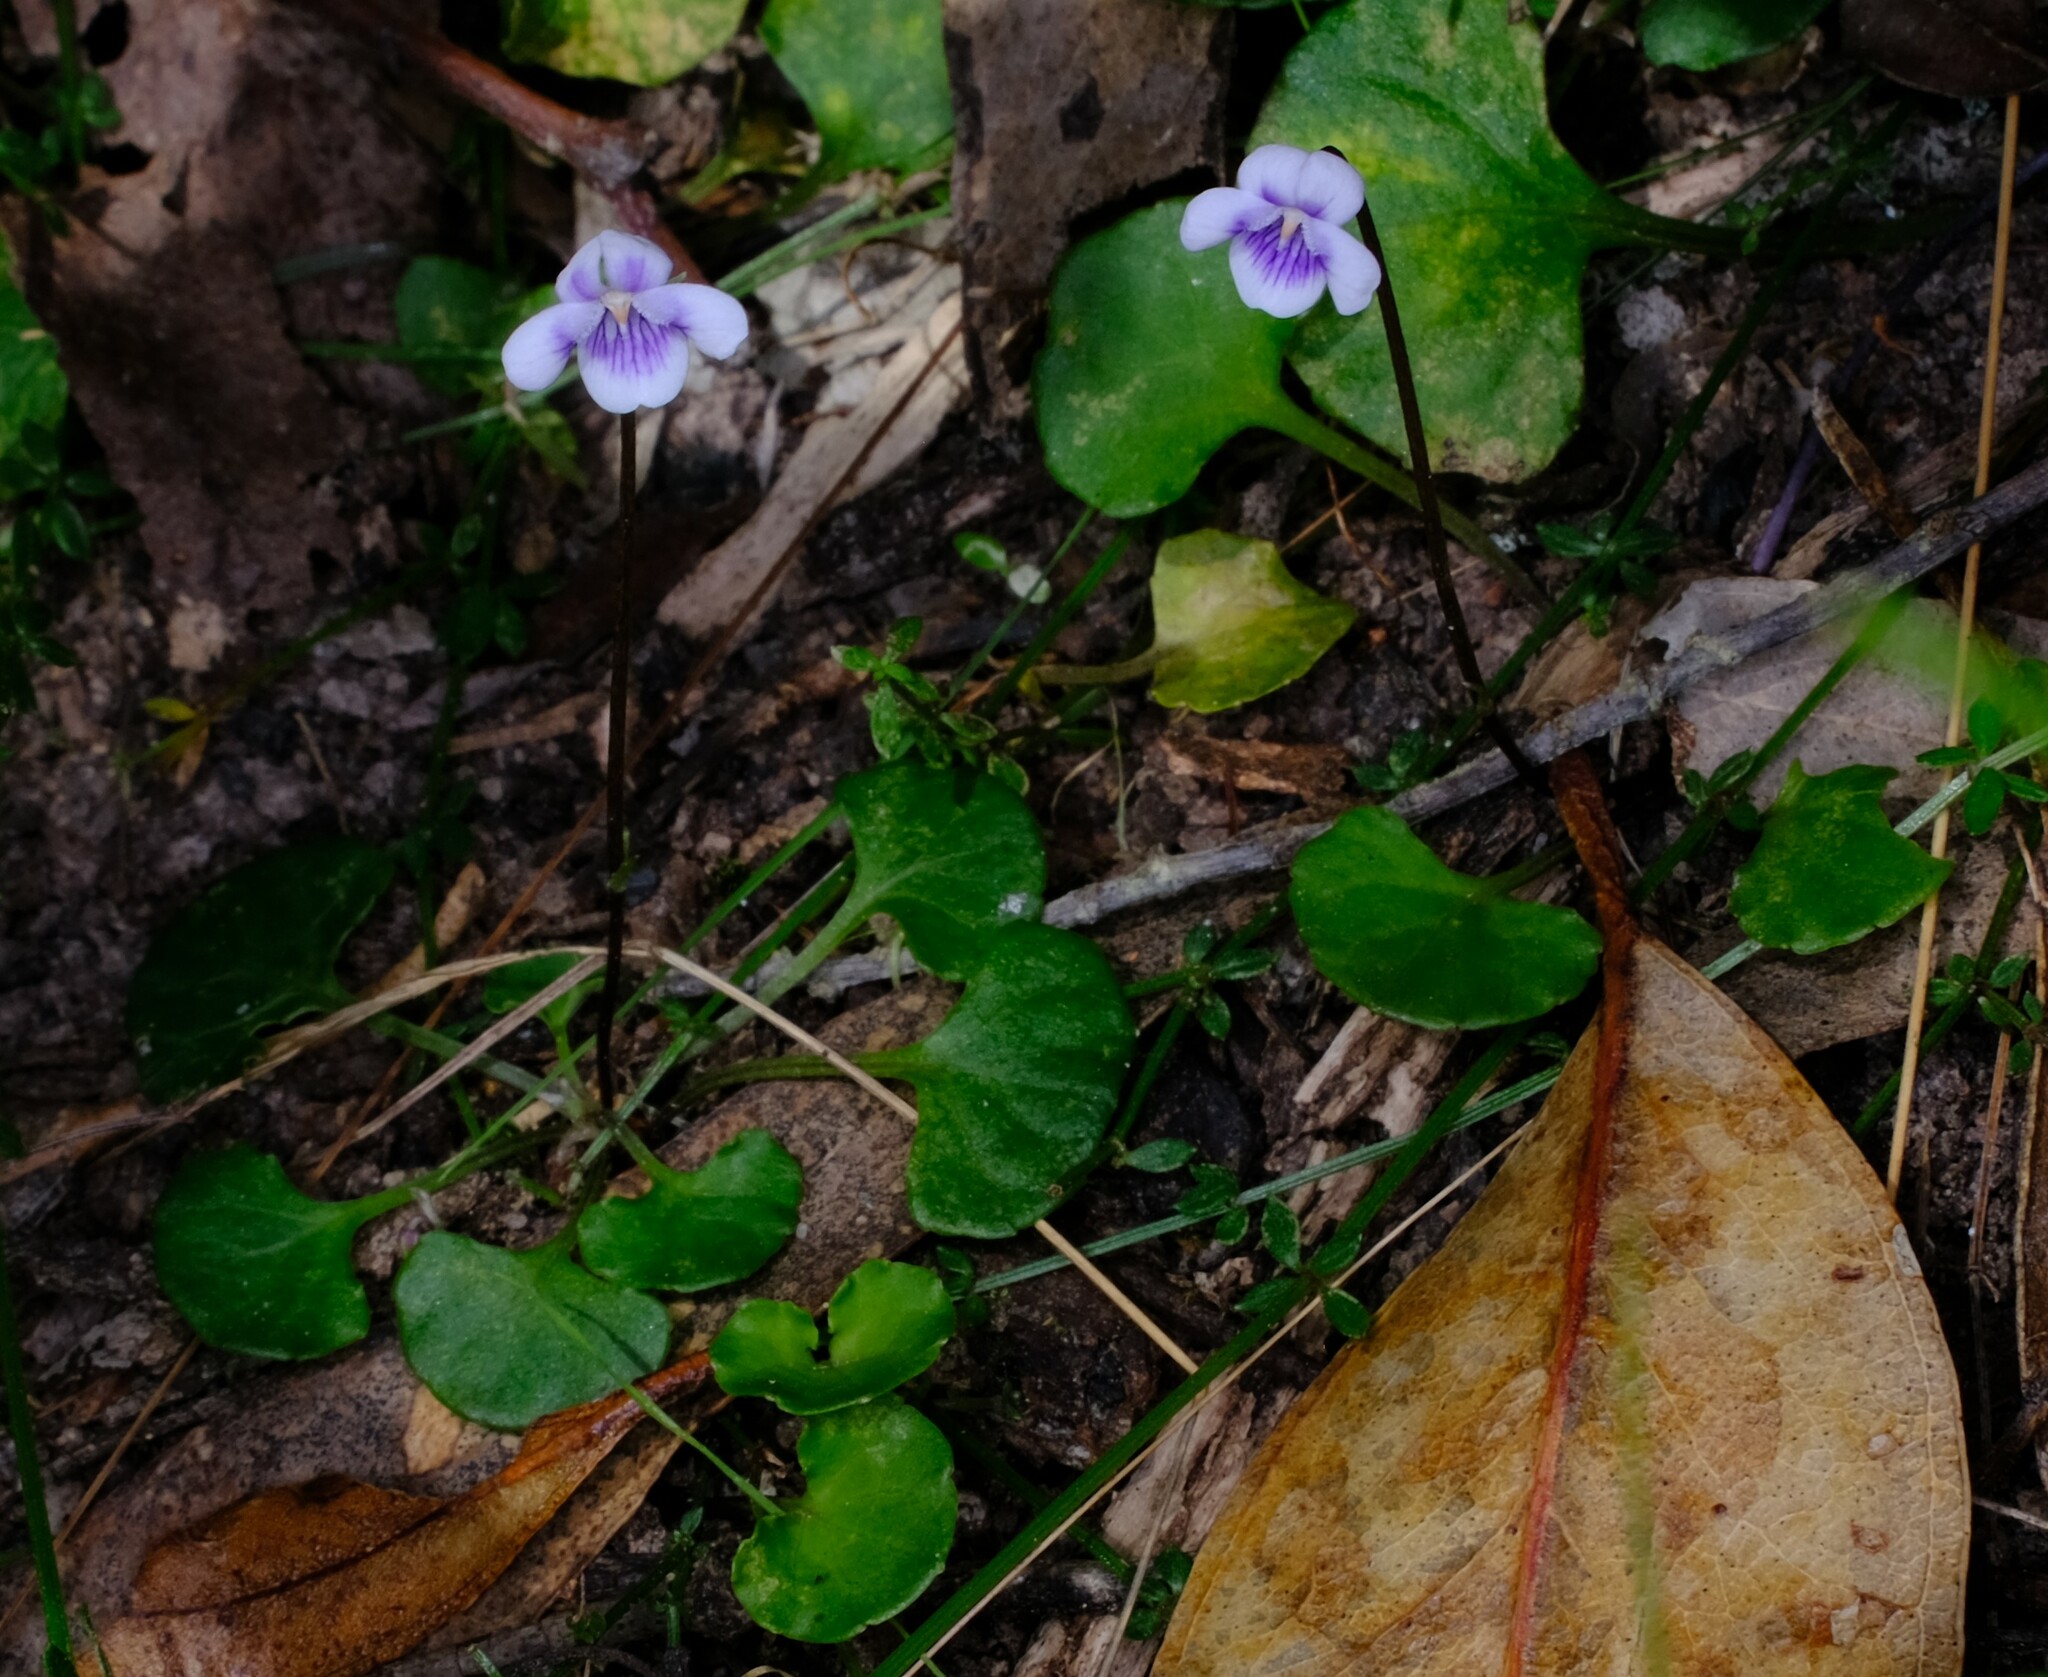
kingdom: Plantae
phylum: Tracheophyta
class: Magnoliopsida
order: Malpighiales
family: Violaceae
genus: Viola
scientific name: Viola hederacea
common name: Australian violet
